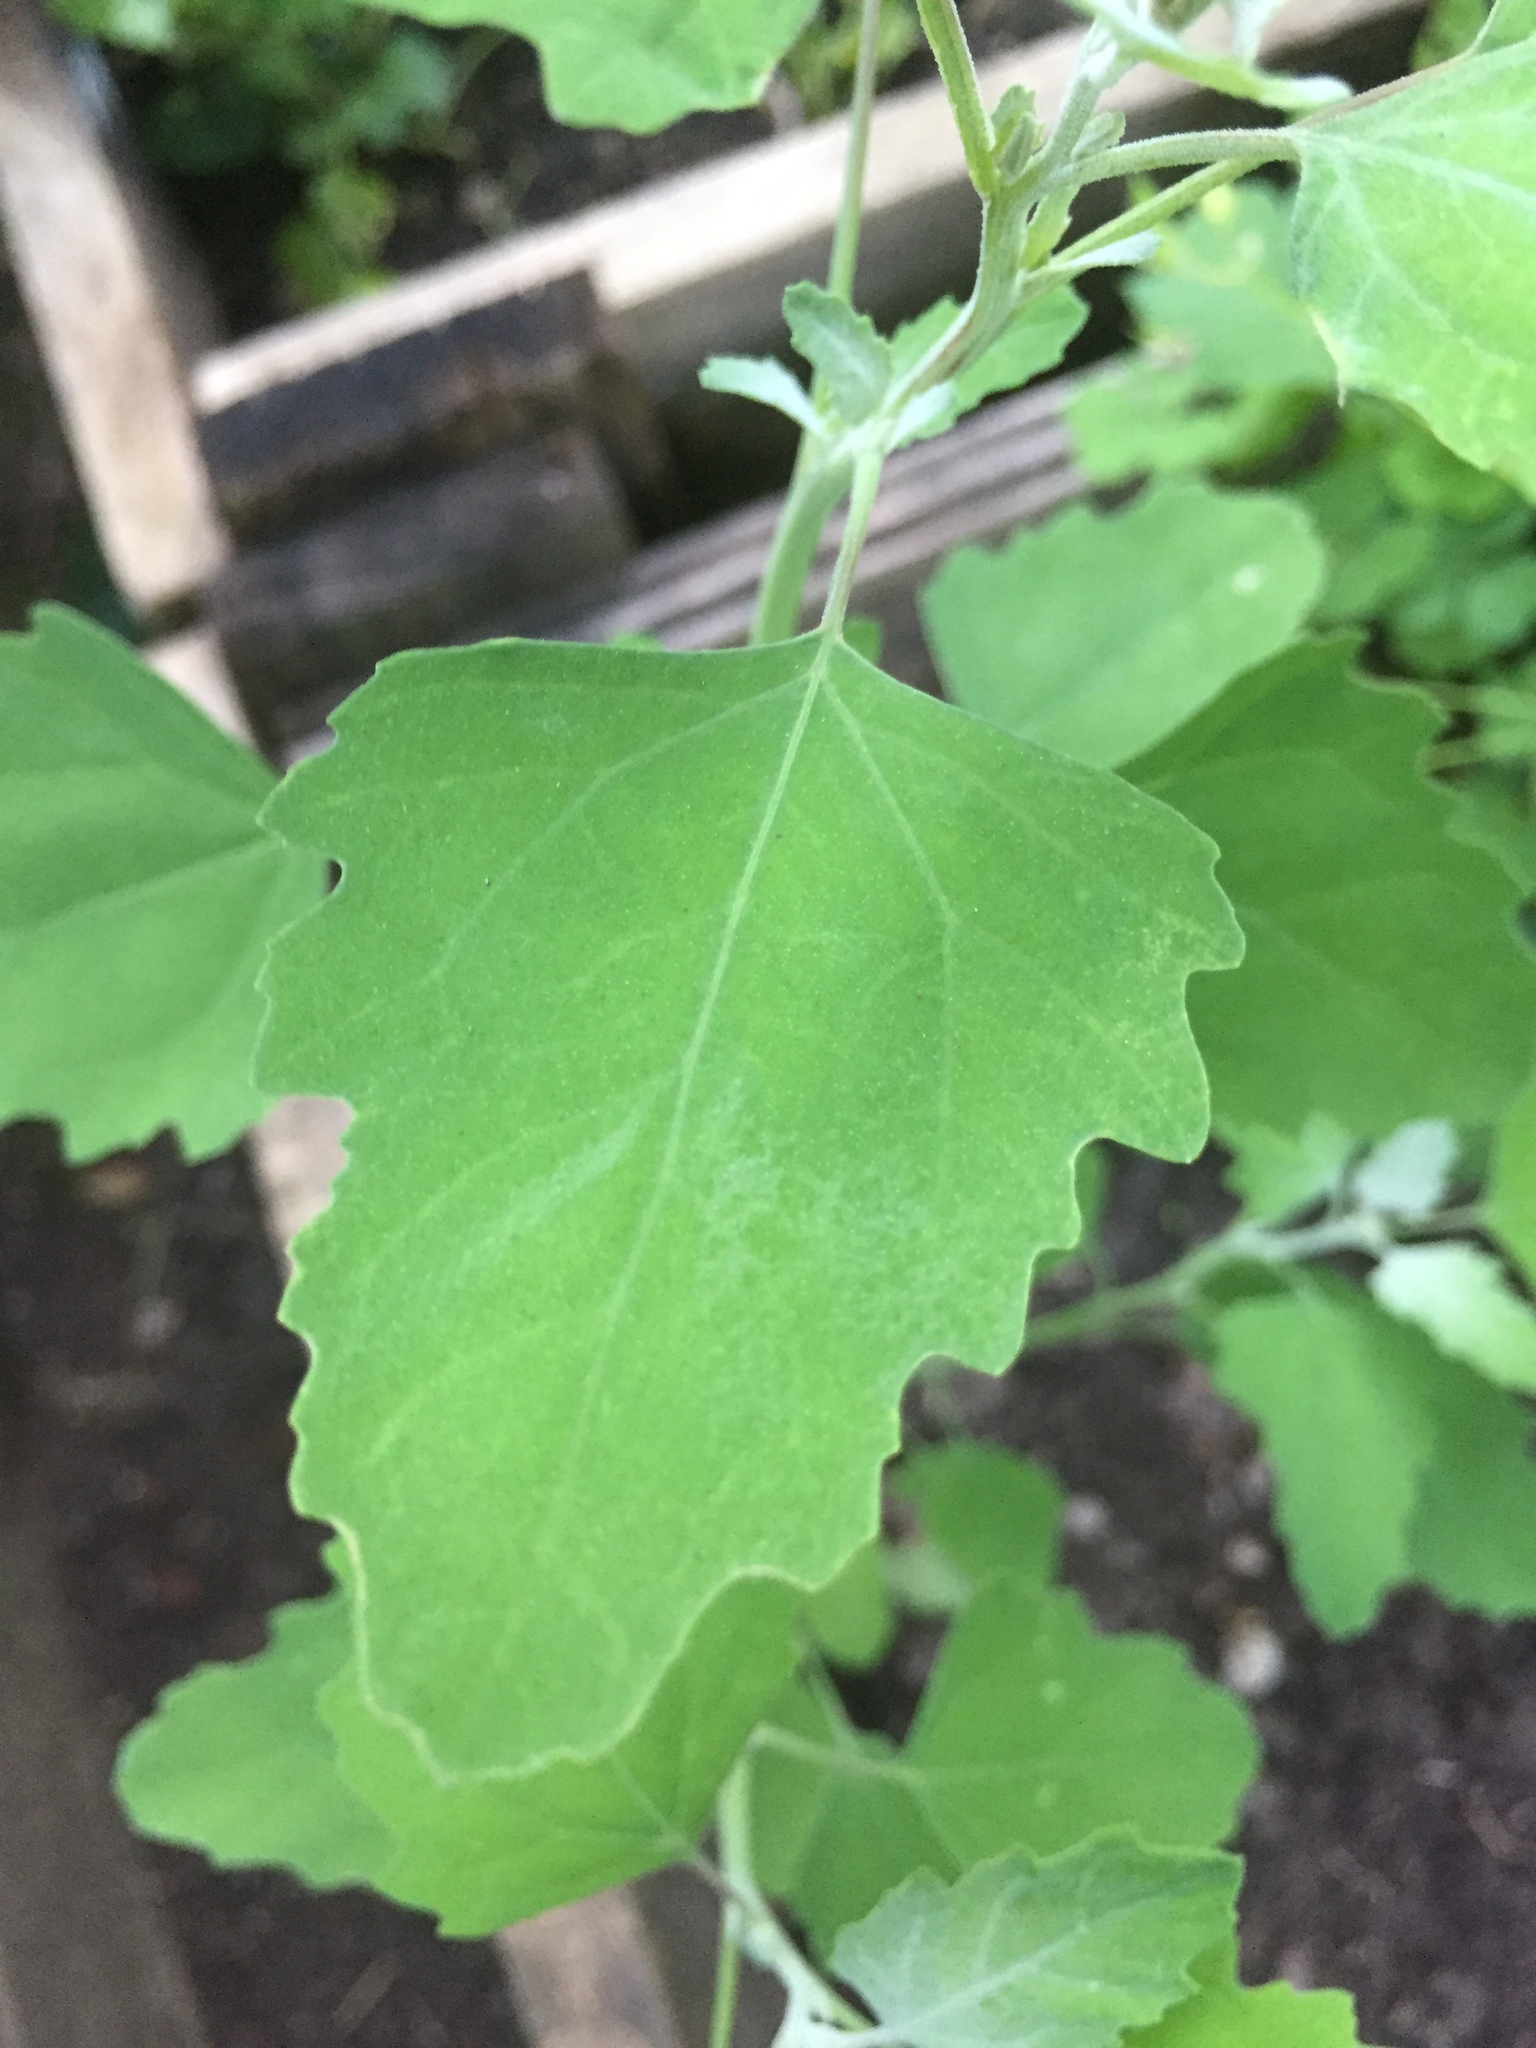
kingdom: Plantae
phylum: Tracheophyta
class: Magnoliopsida
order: Caryophyllales
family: Amaranthaceae
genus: Chenopodium
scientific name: Chenopodium album
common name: Fat-hen
